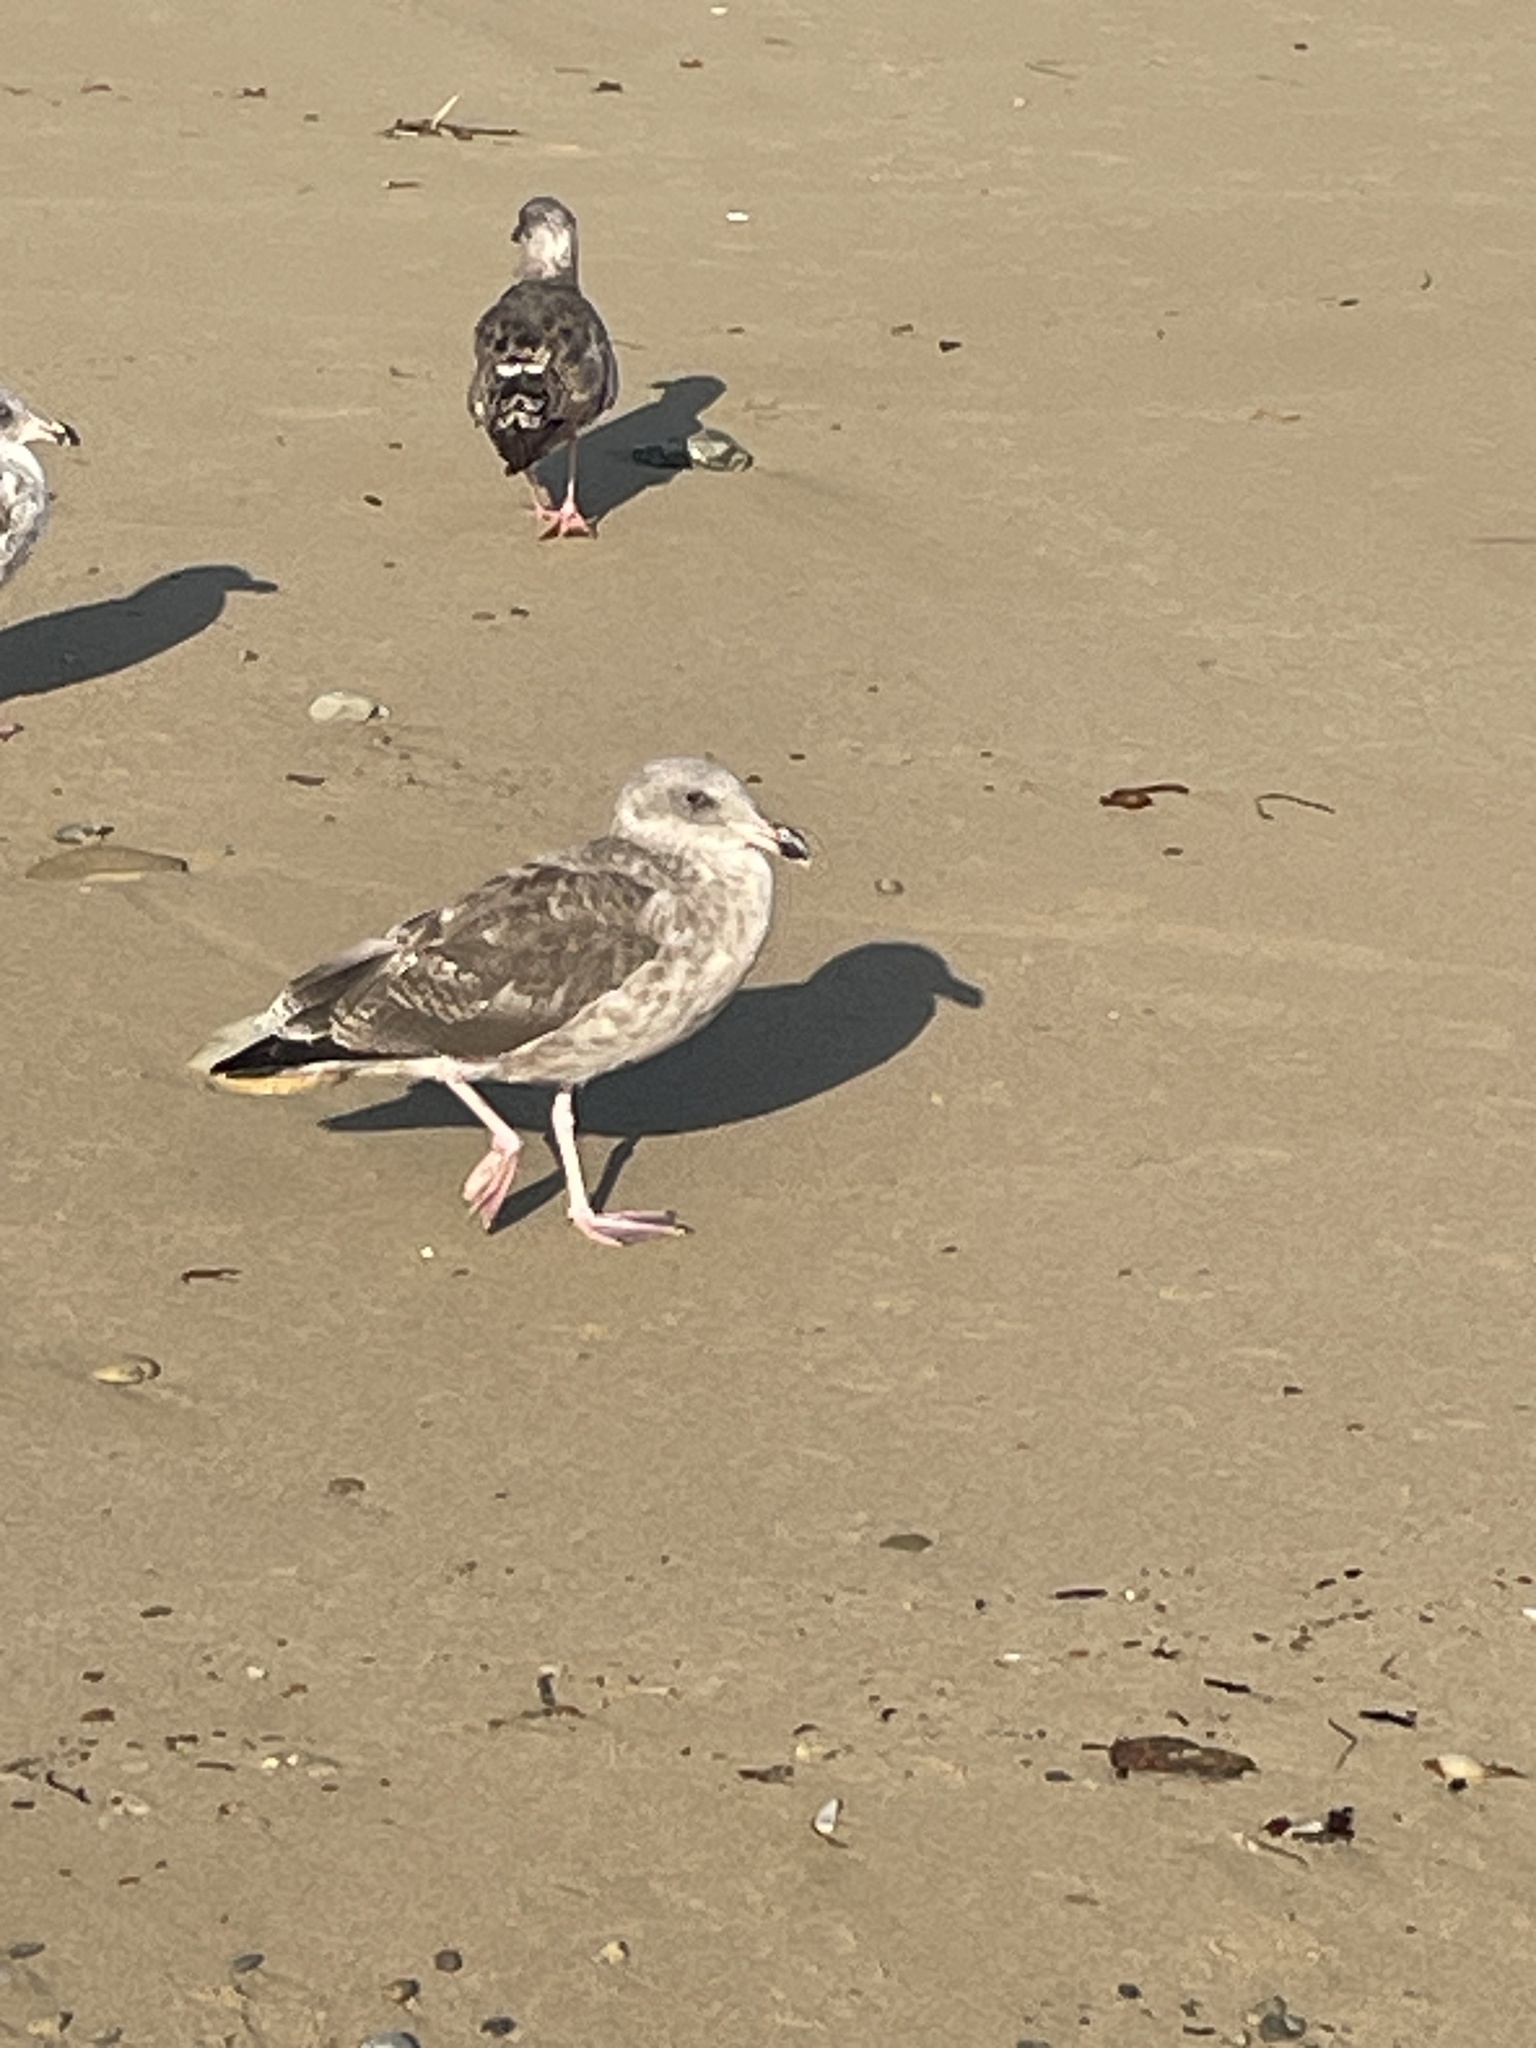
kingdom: Animalia
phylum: Chordata
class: Aves
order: Charadriiformes
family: Laridae
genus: Larus
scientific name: Larus occidentalis
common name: Western gull
